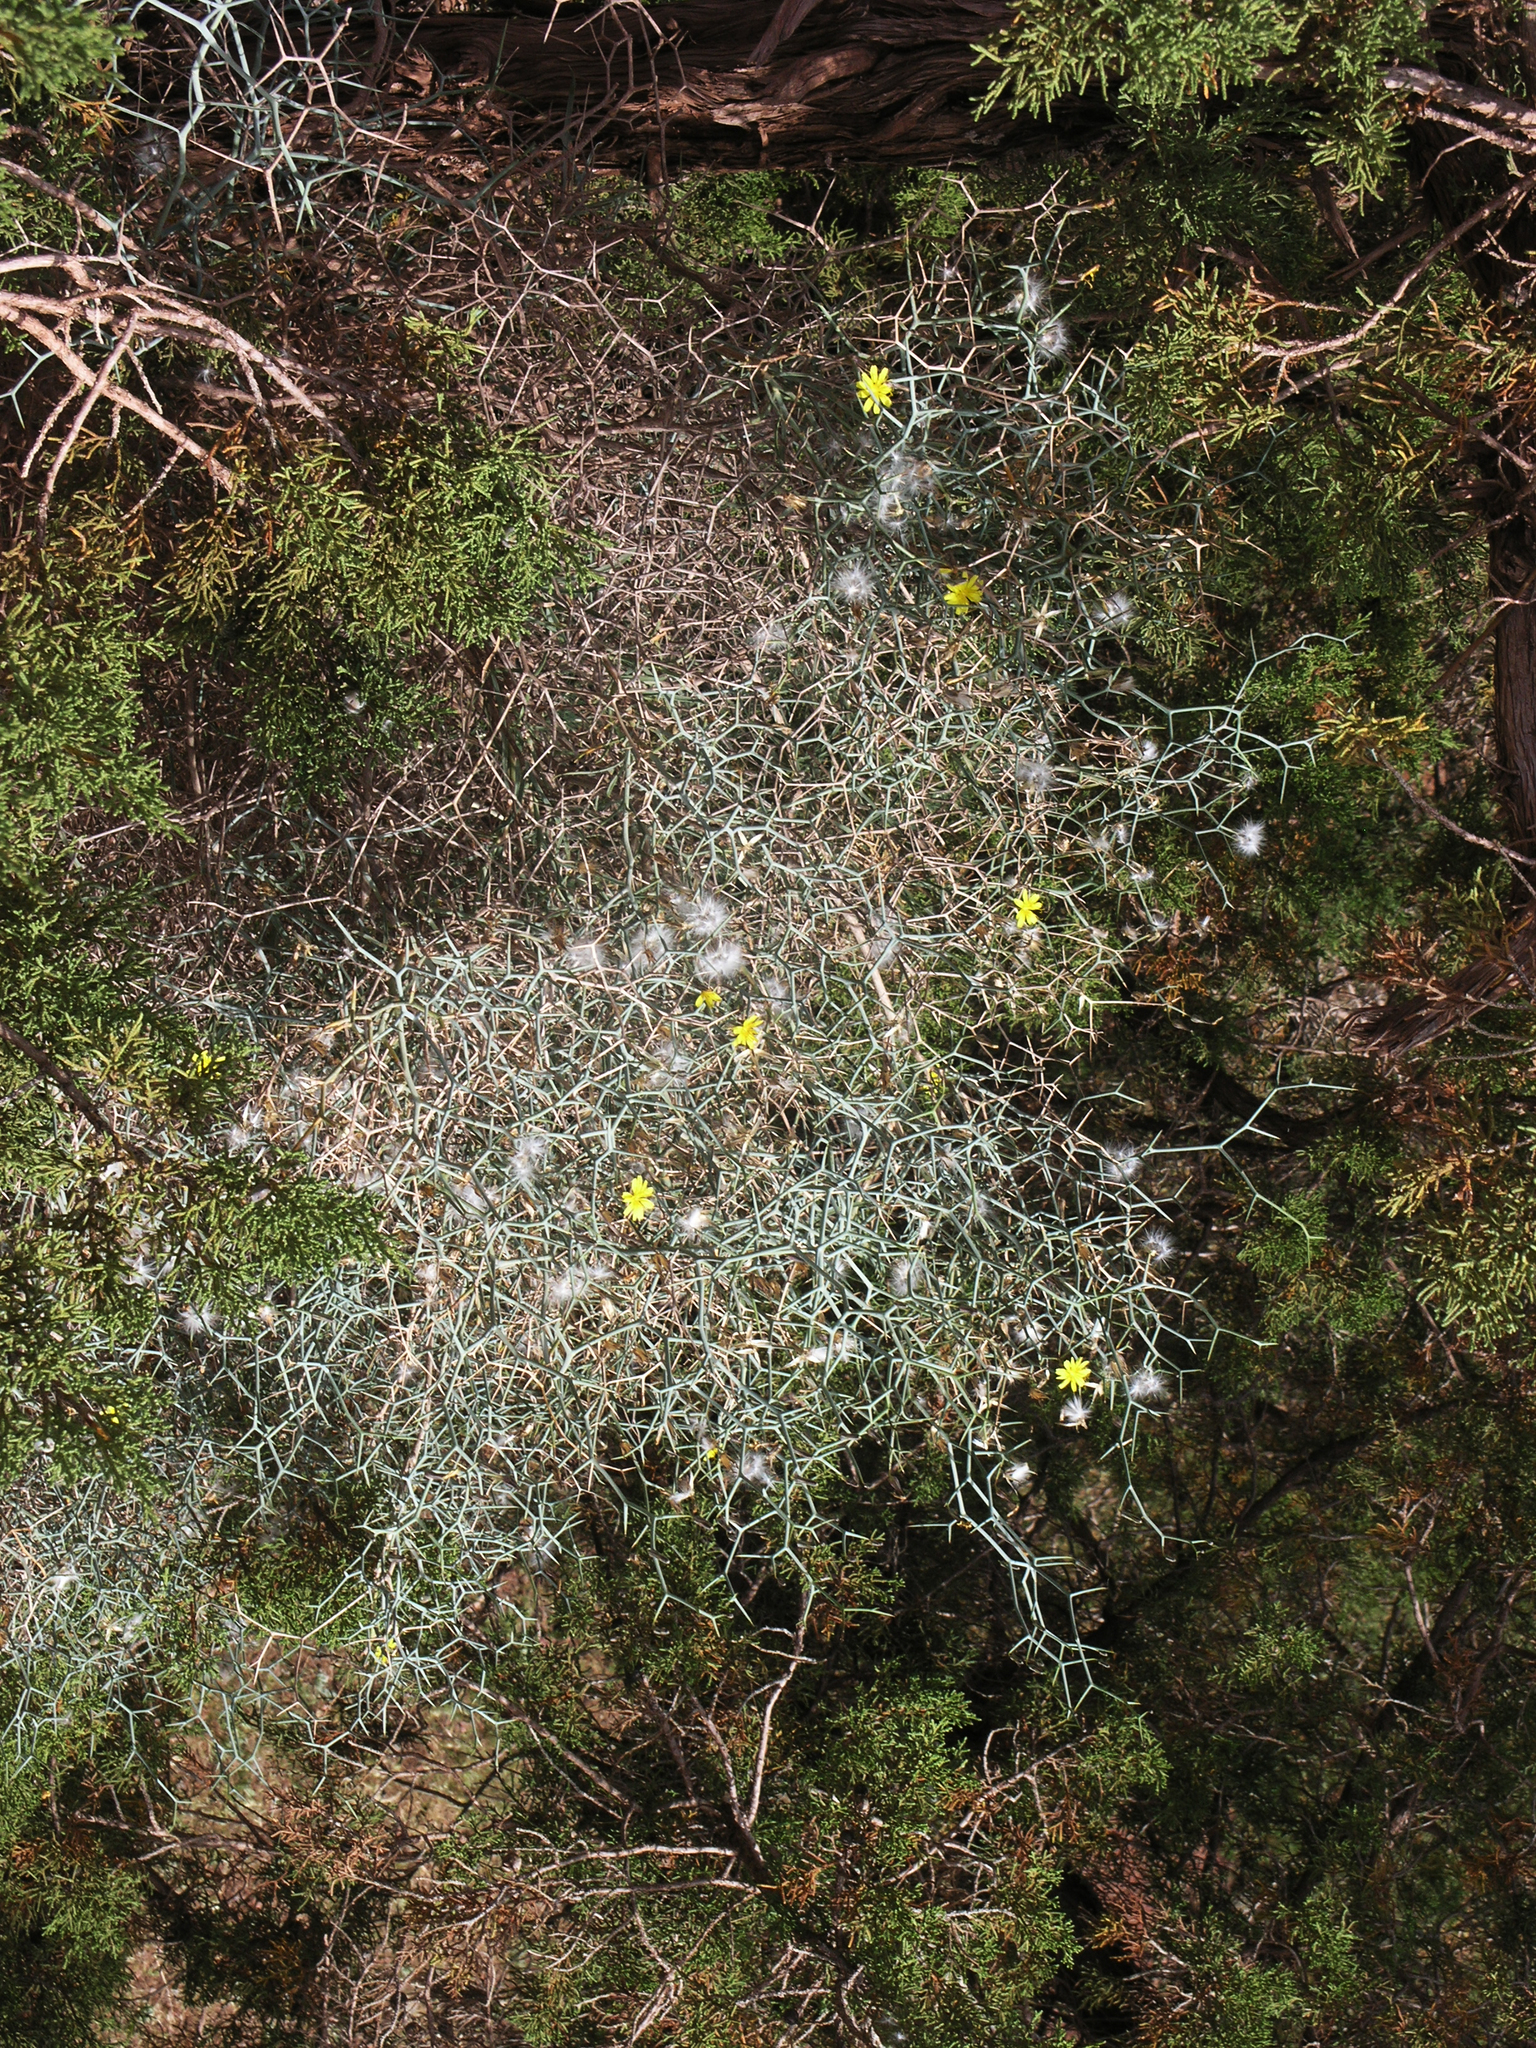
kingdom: Plantae
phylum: Tracheophyta
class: Magnoliopsida
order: Asterales
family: Asteraceae
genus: Launaea
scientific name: Launaea arborescens
